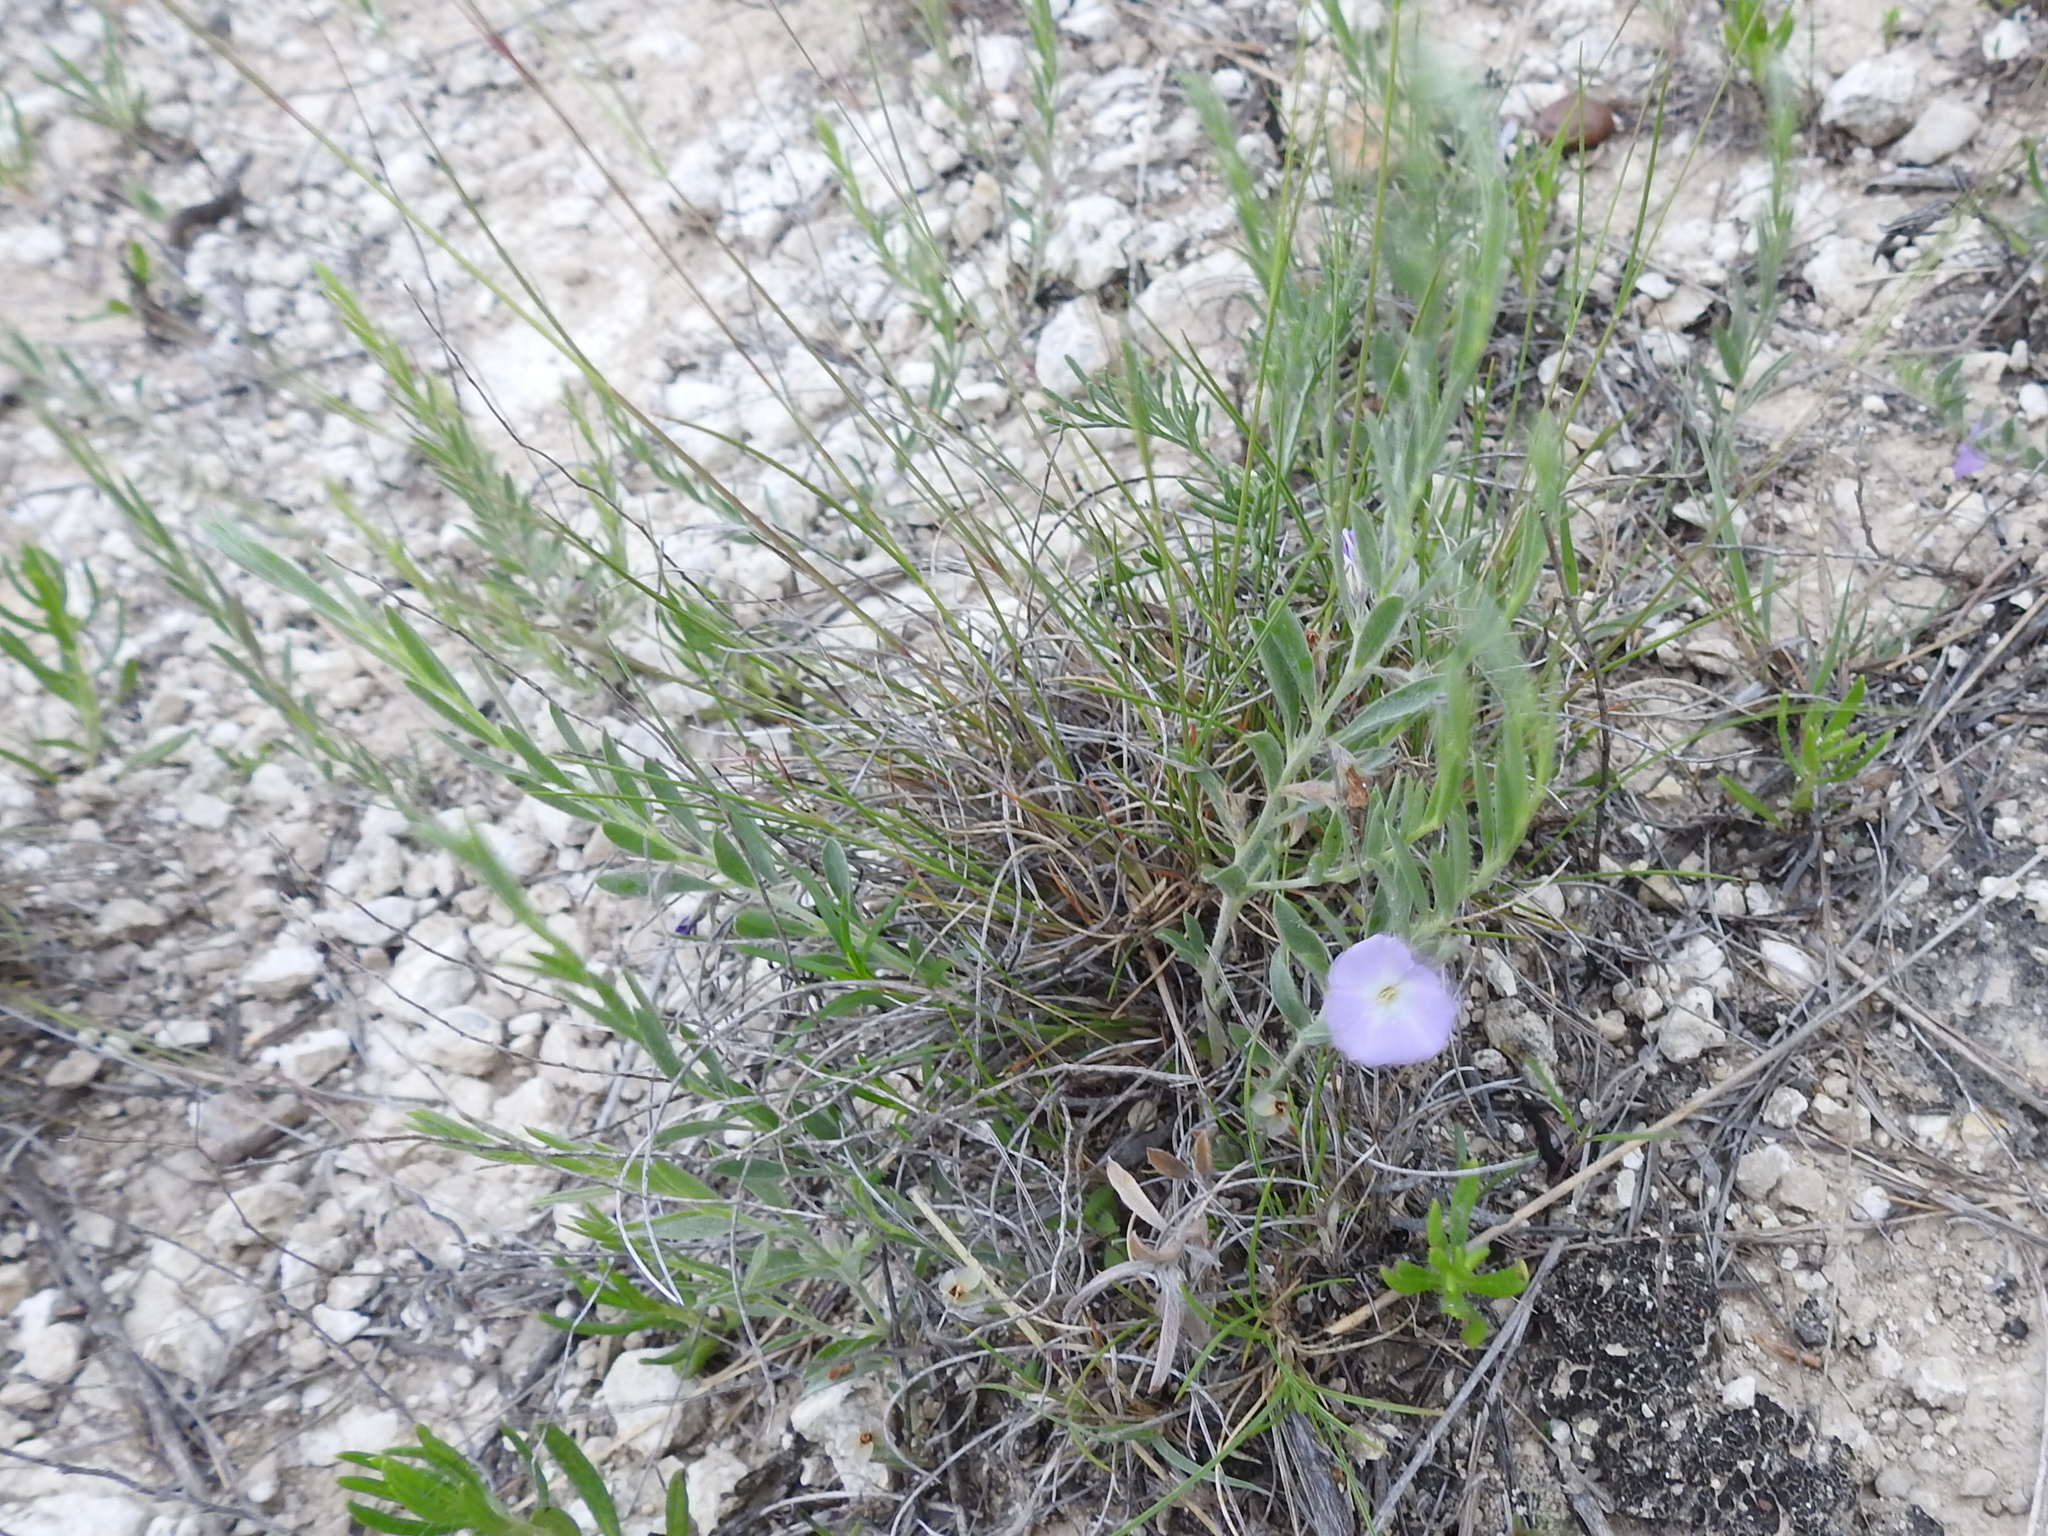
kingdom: Plantae
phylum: Tracheophyta
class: Magnoliopsida
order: Solanales
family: Convolvulaceae
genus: Evolvulus
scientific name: Evolvulus nuttallianus
